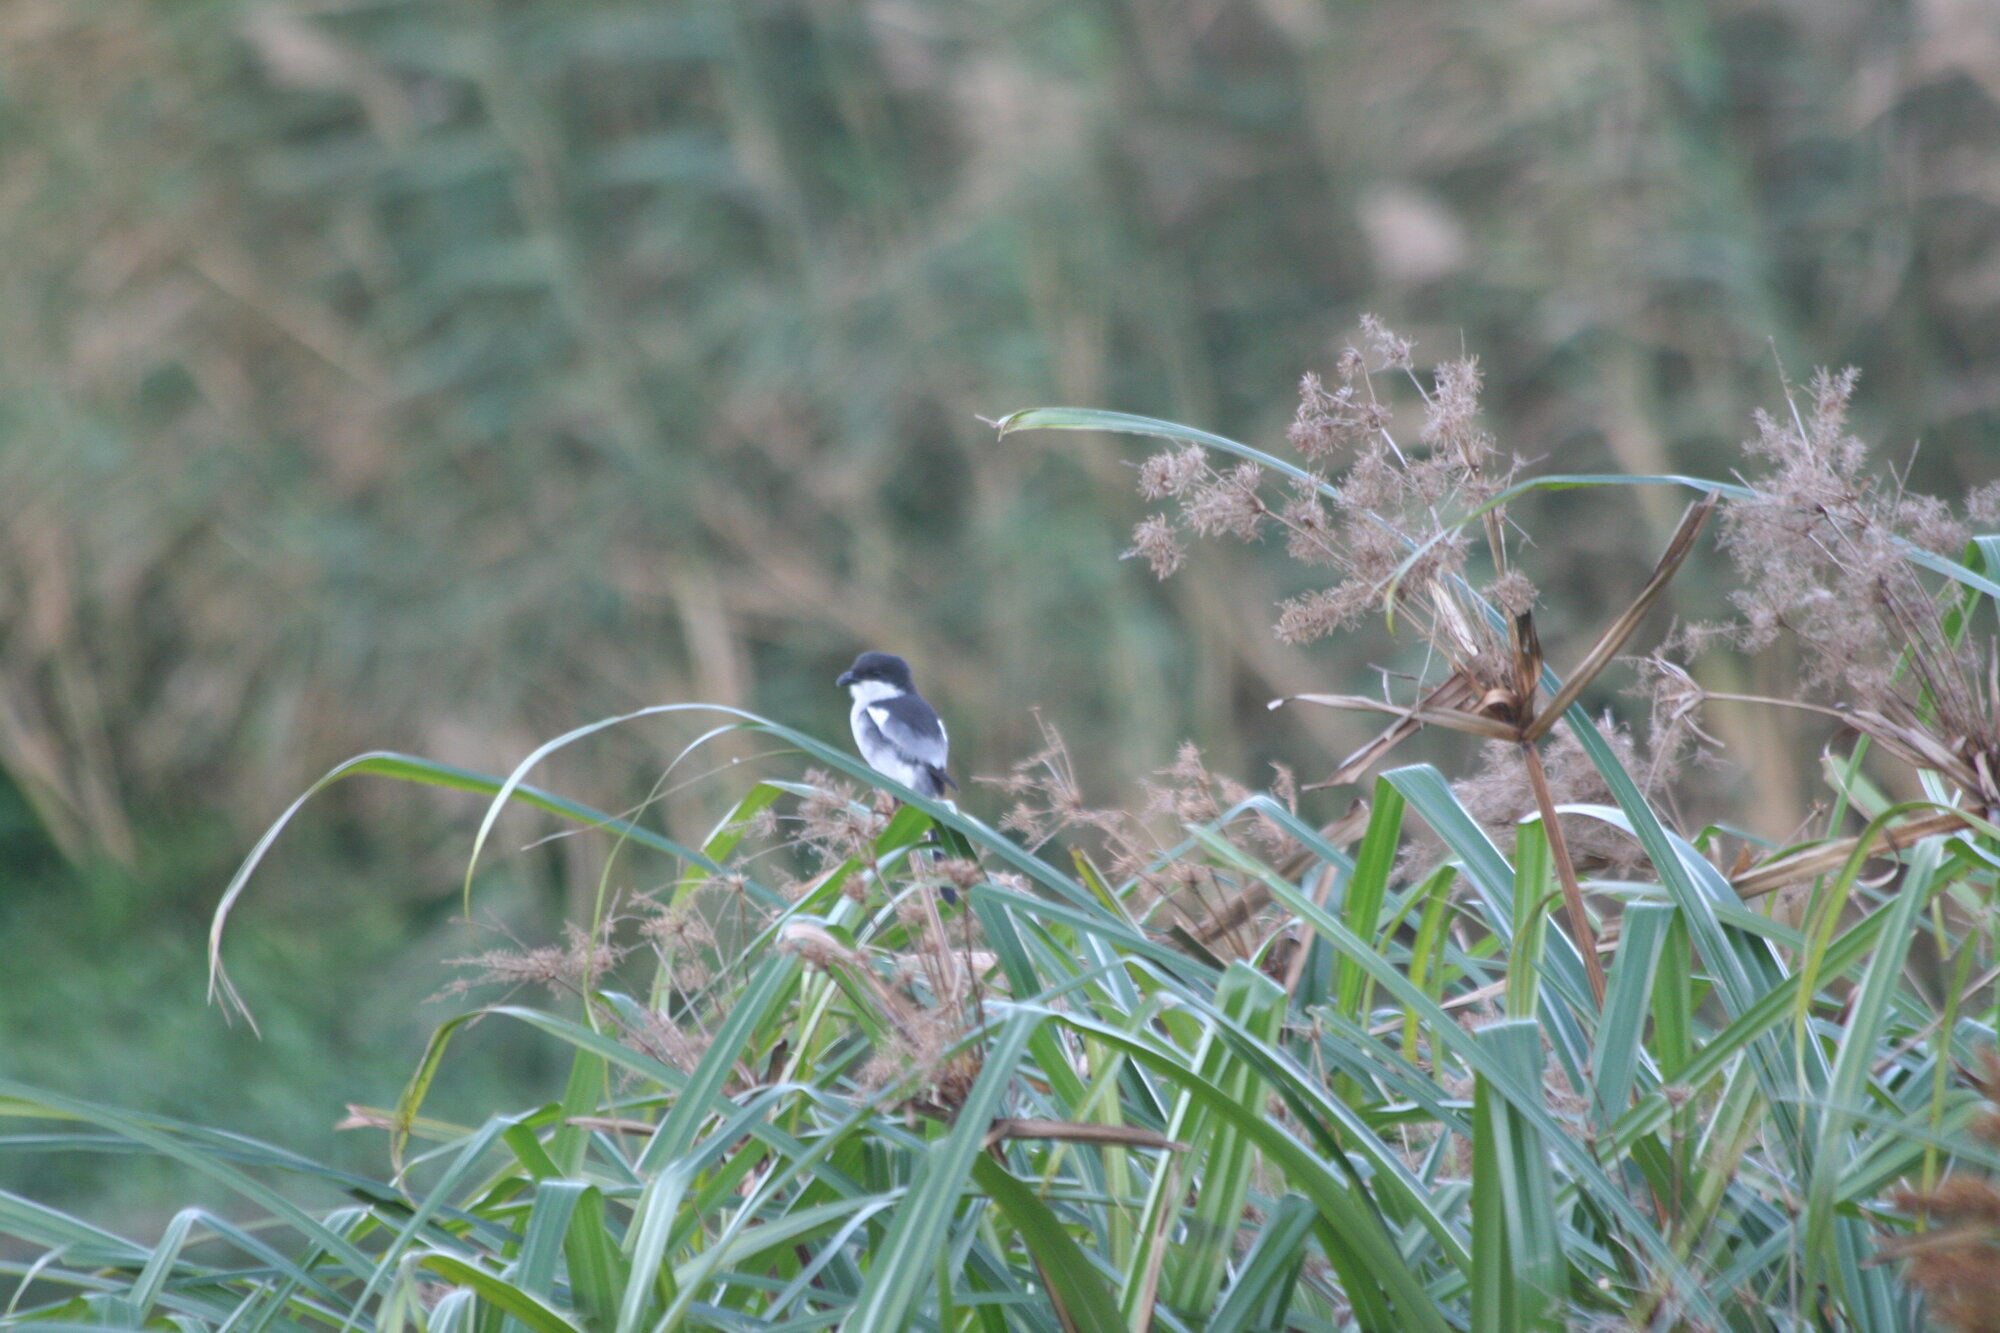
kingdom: Animalia
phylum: Chordata
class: Aves
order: Passeriformes
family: Laniidae
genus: Lanius
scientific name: Lanius collaris
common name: Southern fiscal
